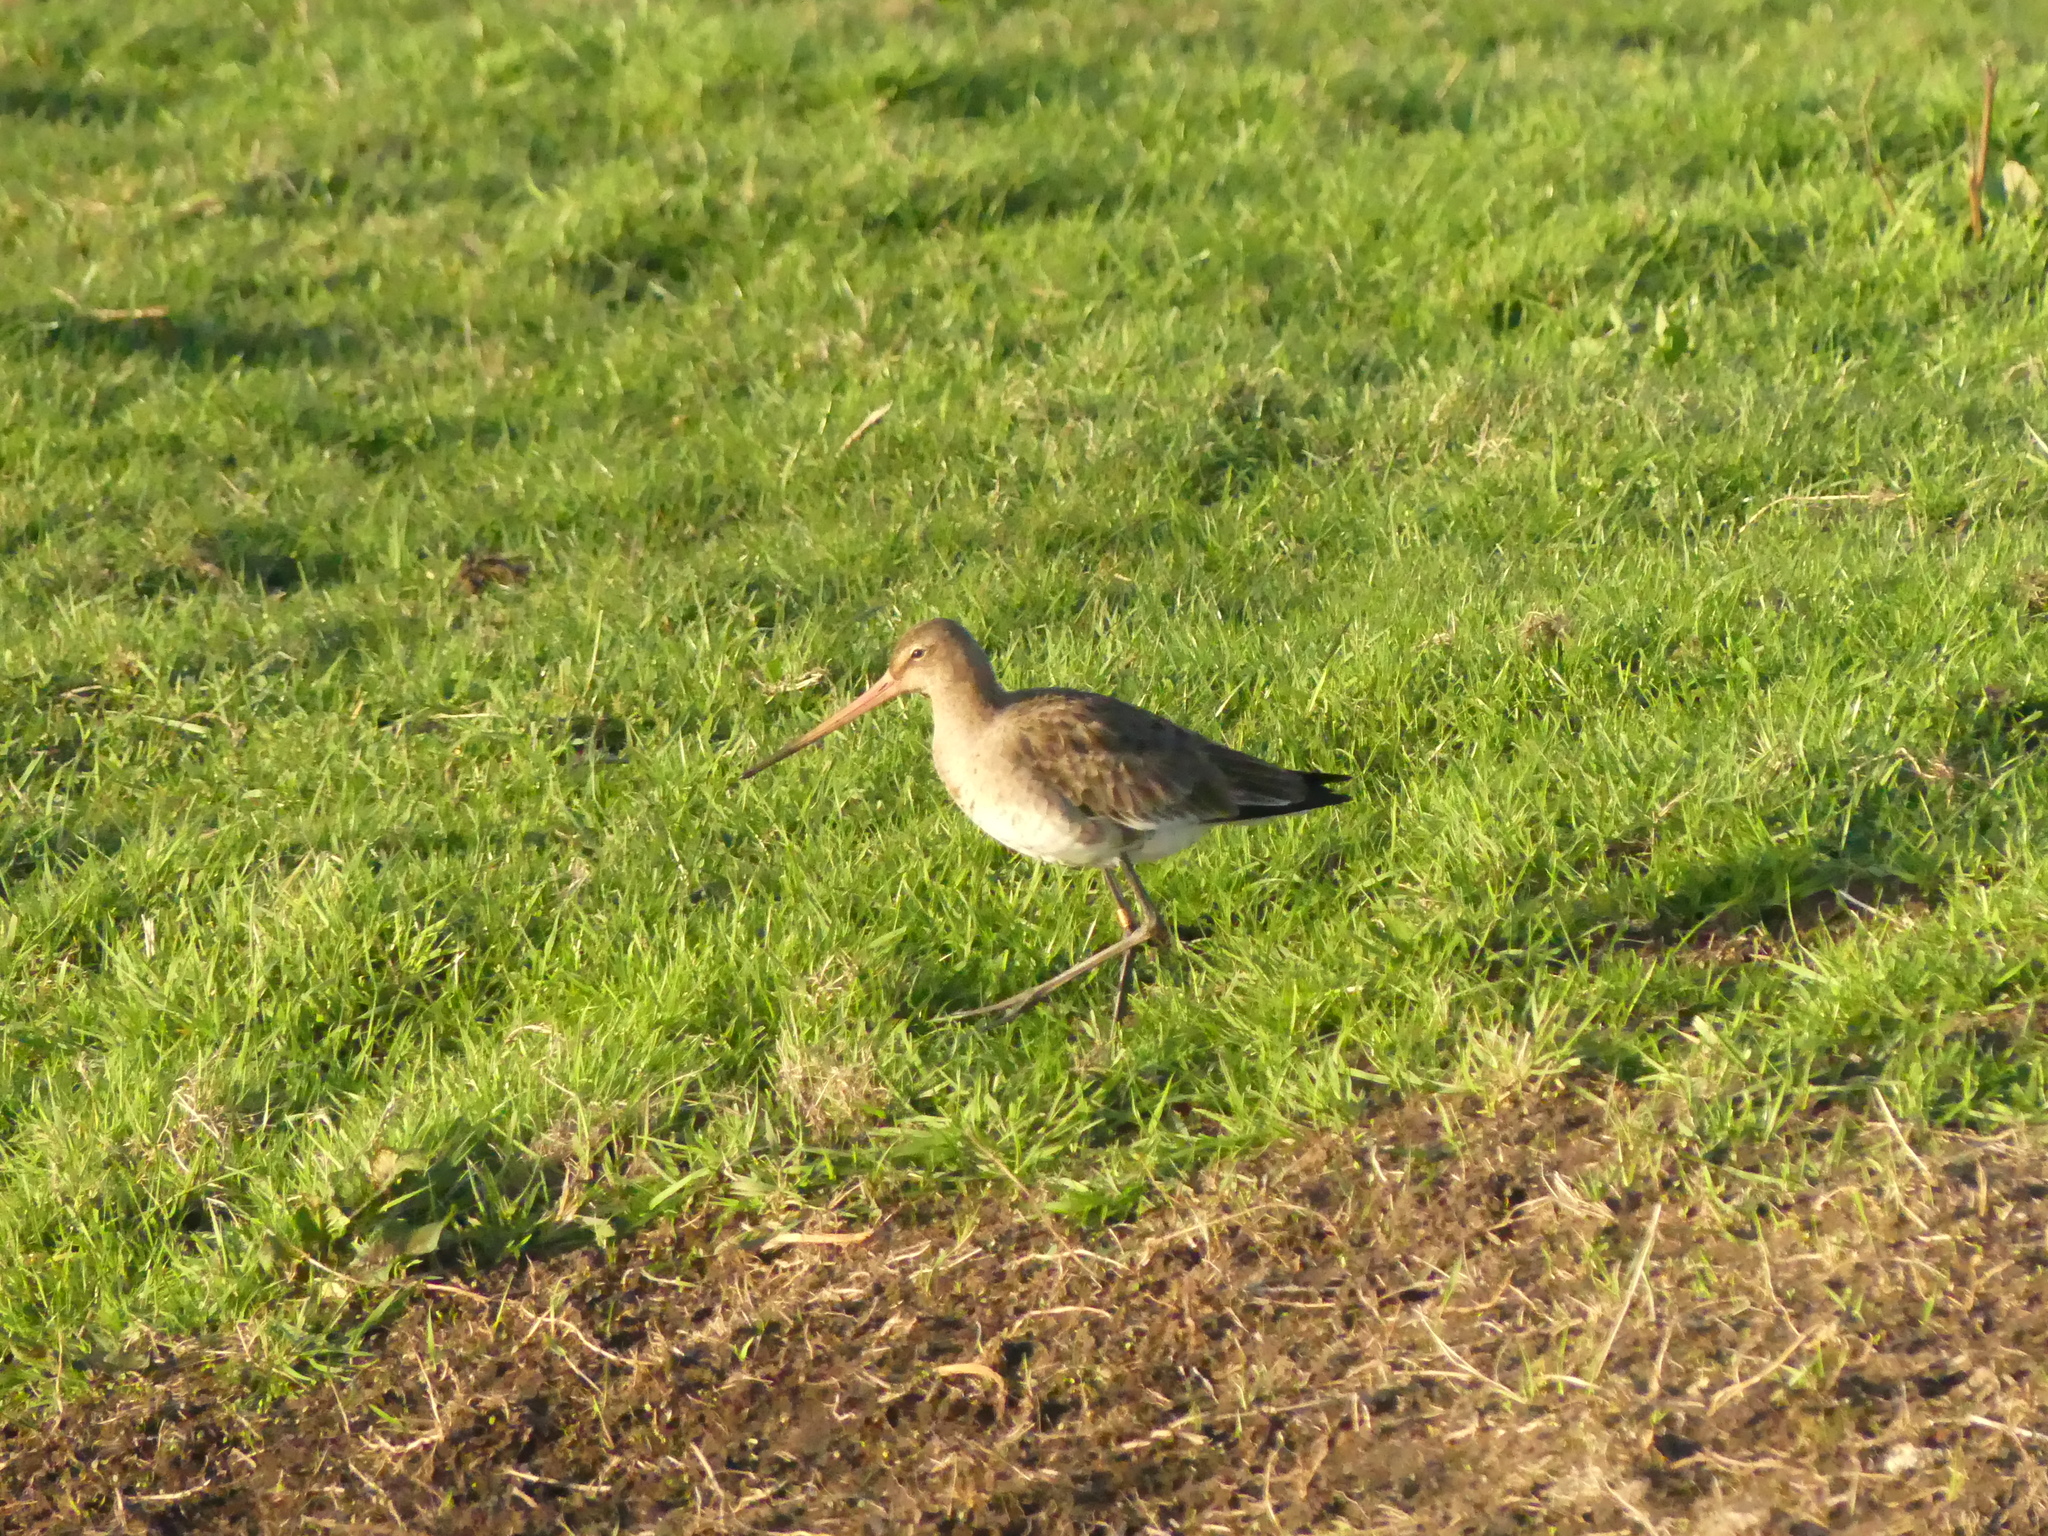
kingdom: Animalia
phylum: Chordata
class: Aves
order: Charadriiformes
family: Scolopacidae
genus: Limosa
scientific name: Limosa limosa
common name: Black-tailed godwit
